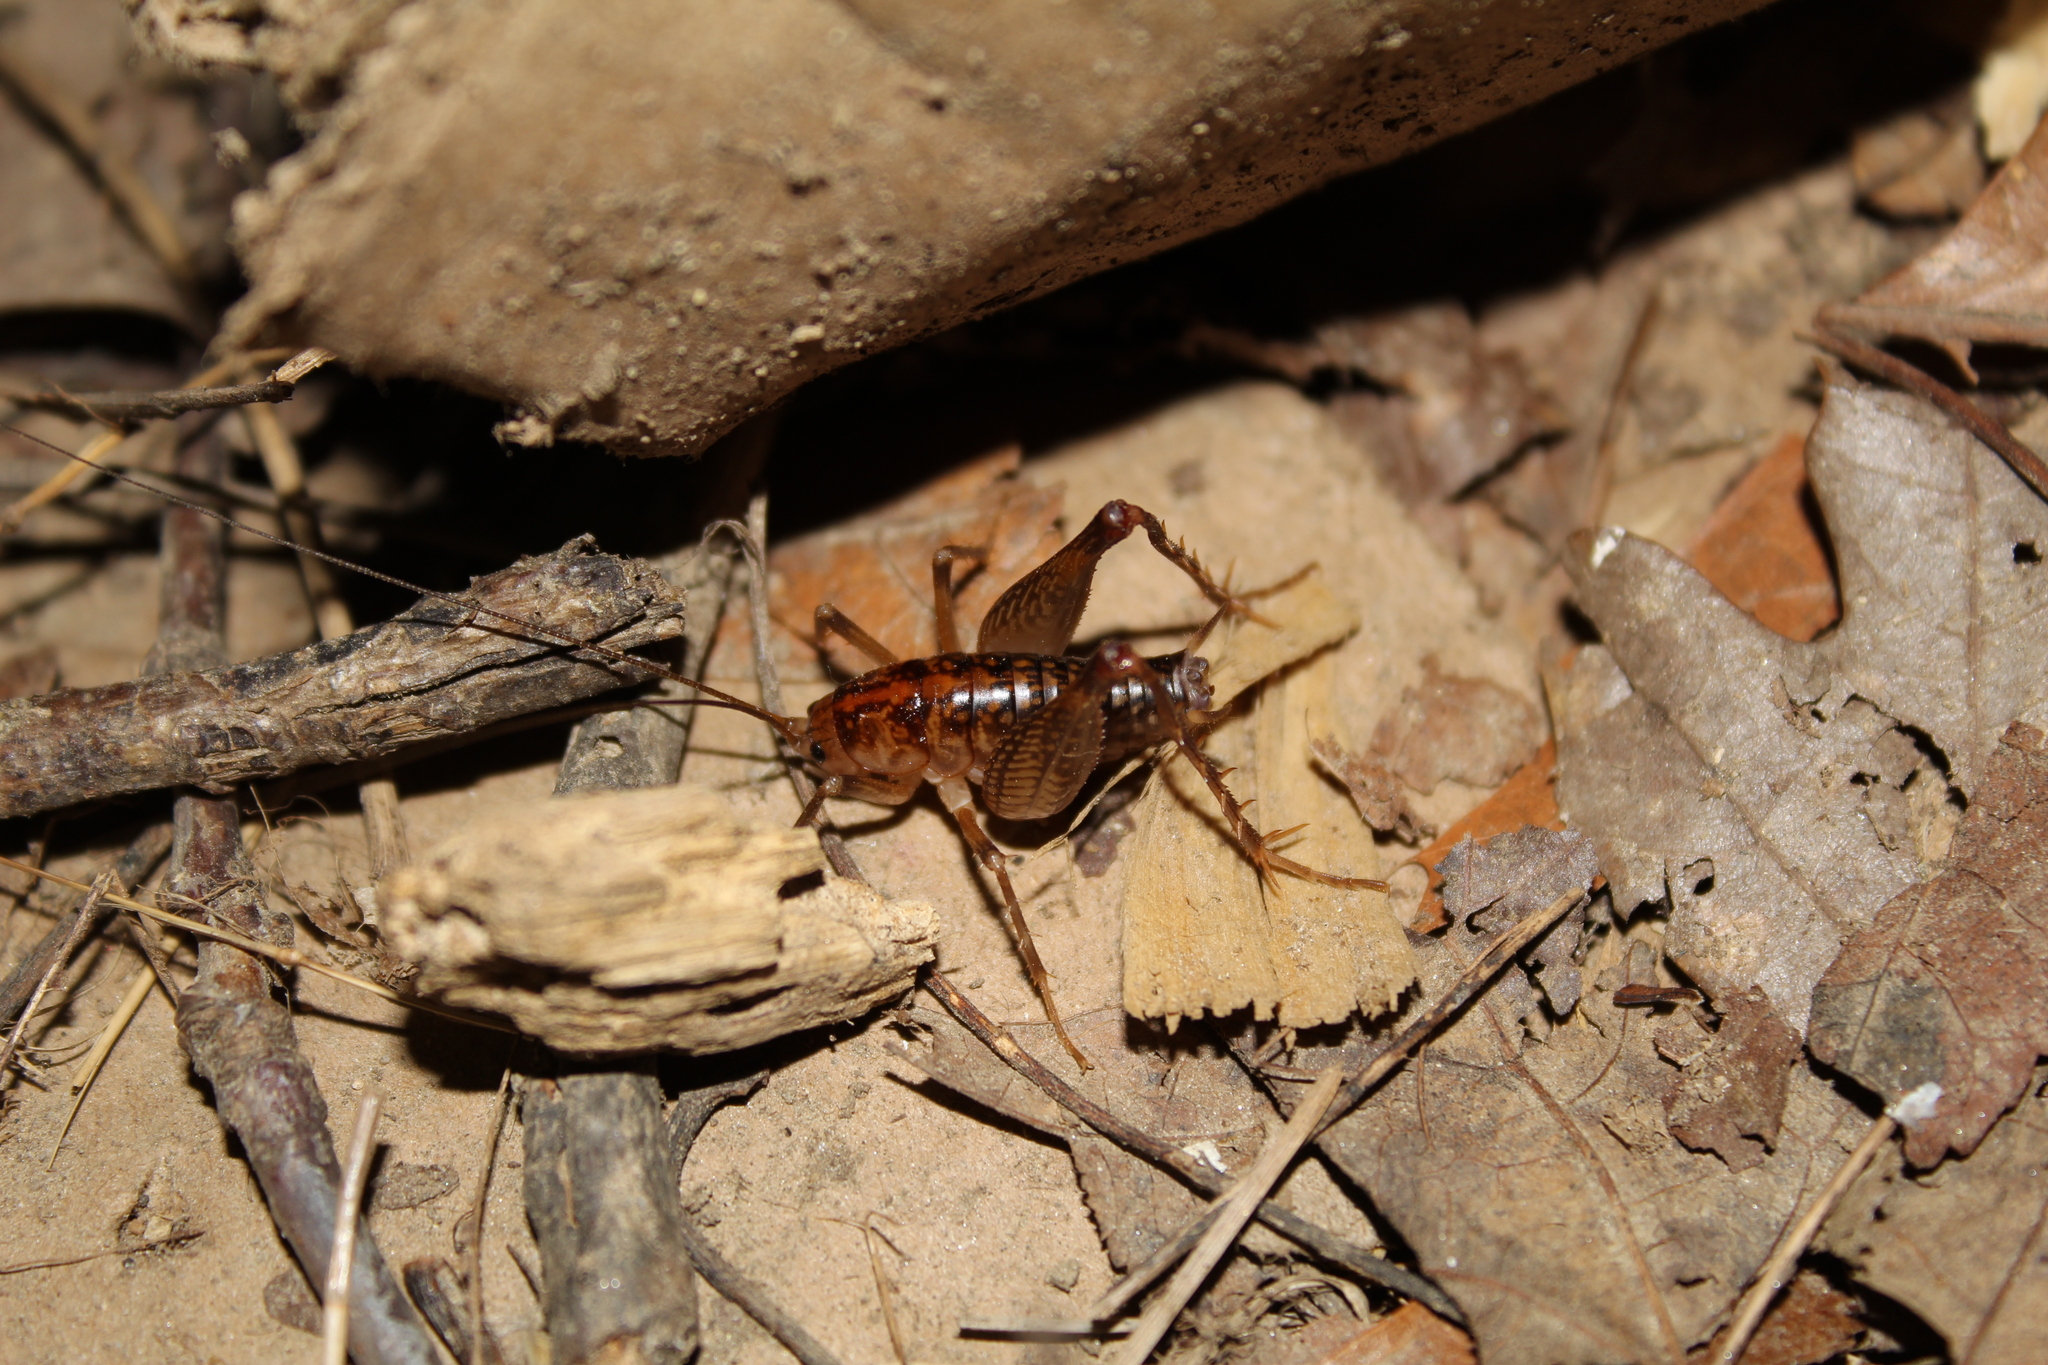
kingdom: Animalia
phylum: Arthropoda
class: Insecta
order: Orthoptera
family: Rhaphidophoridae
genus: Ceuthophilus
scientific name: Ceuthophilus
